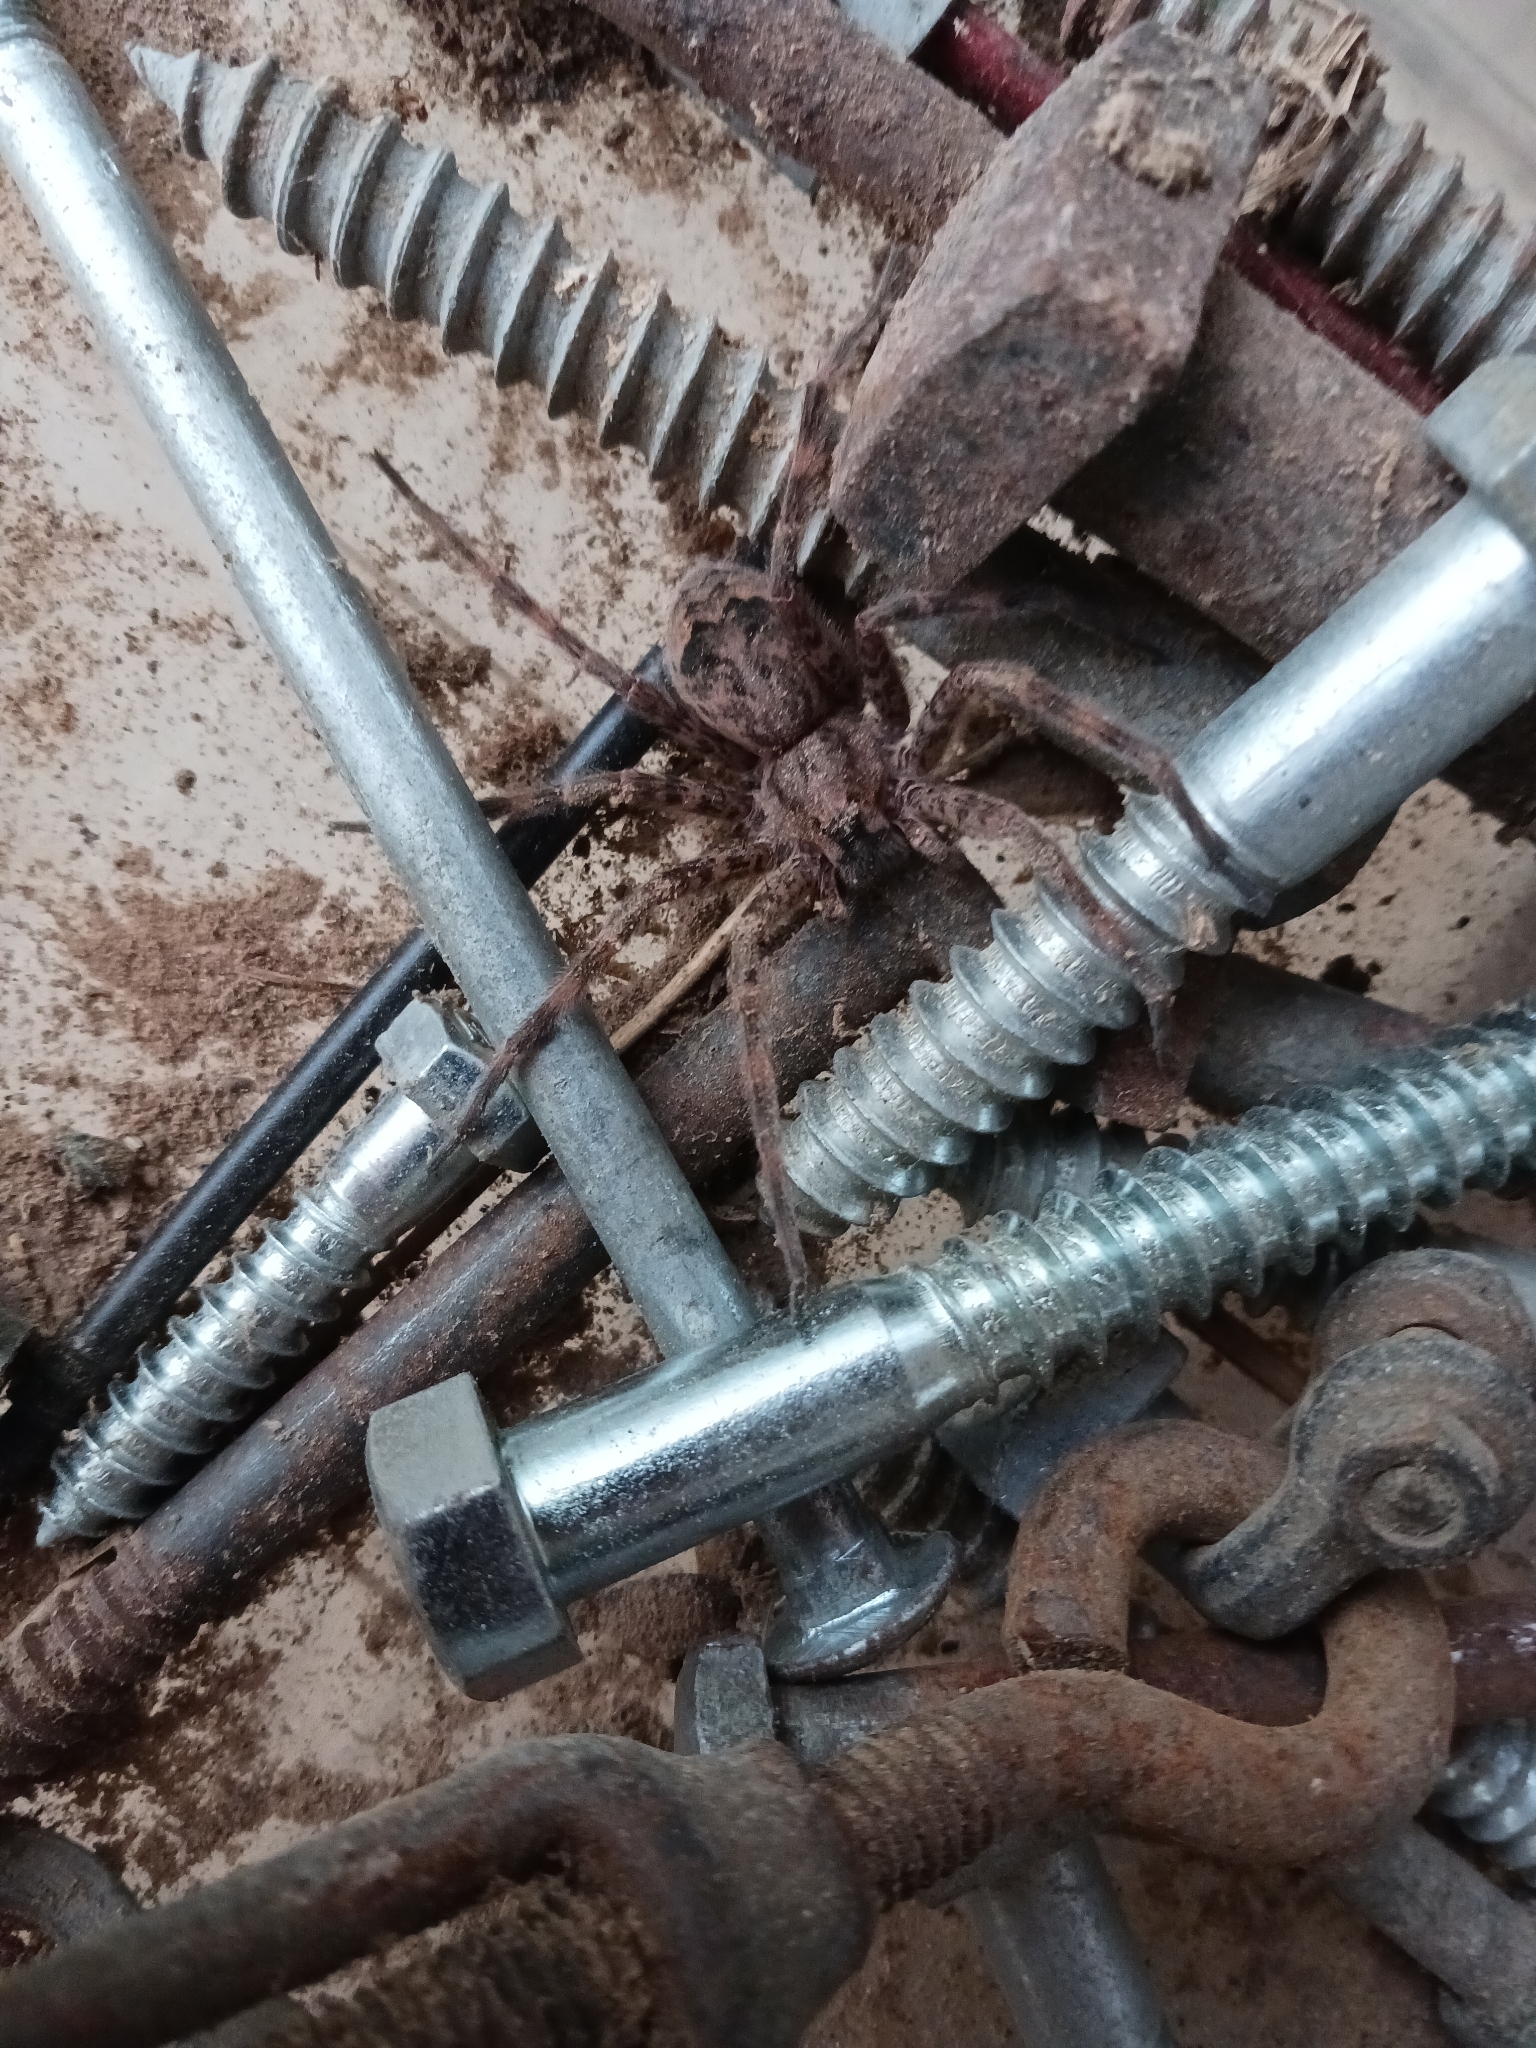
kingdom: Animalia
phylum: Arthropoda
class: Arachnida
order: Araneae
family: Pisauridae
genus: Dolomedes
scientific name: Dolomedes tenebrosus
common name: Dark fishing spider
